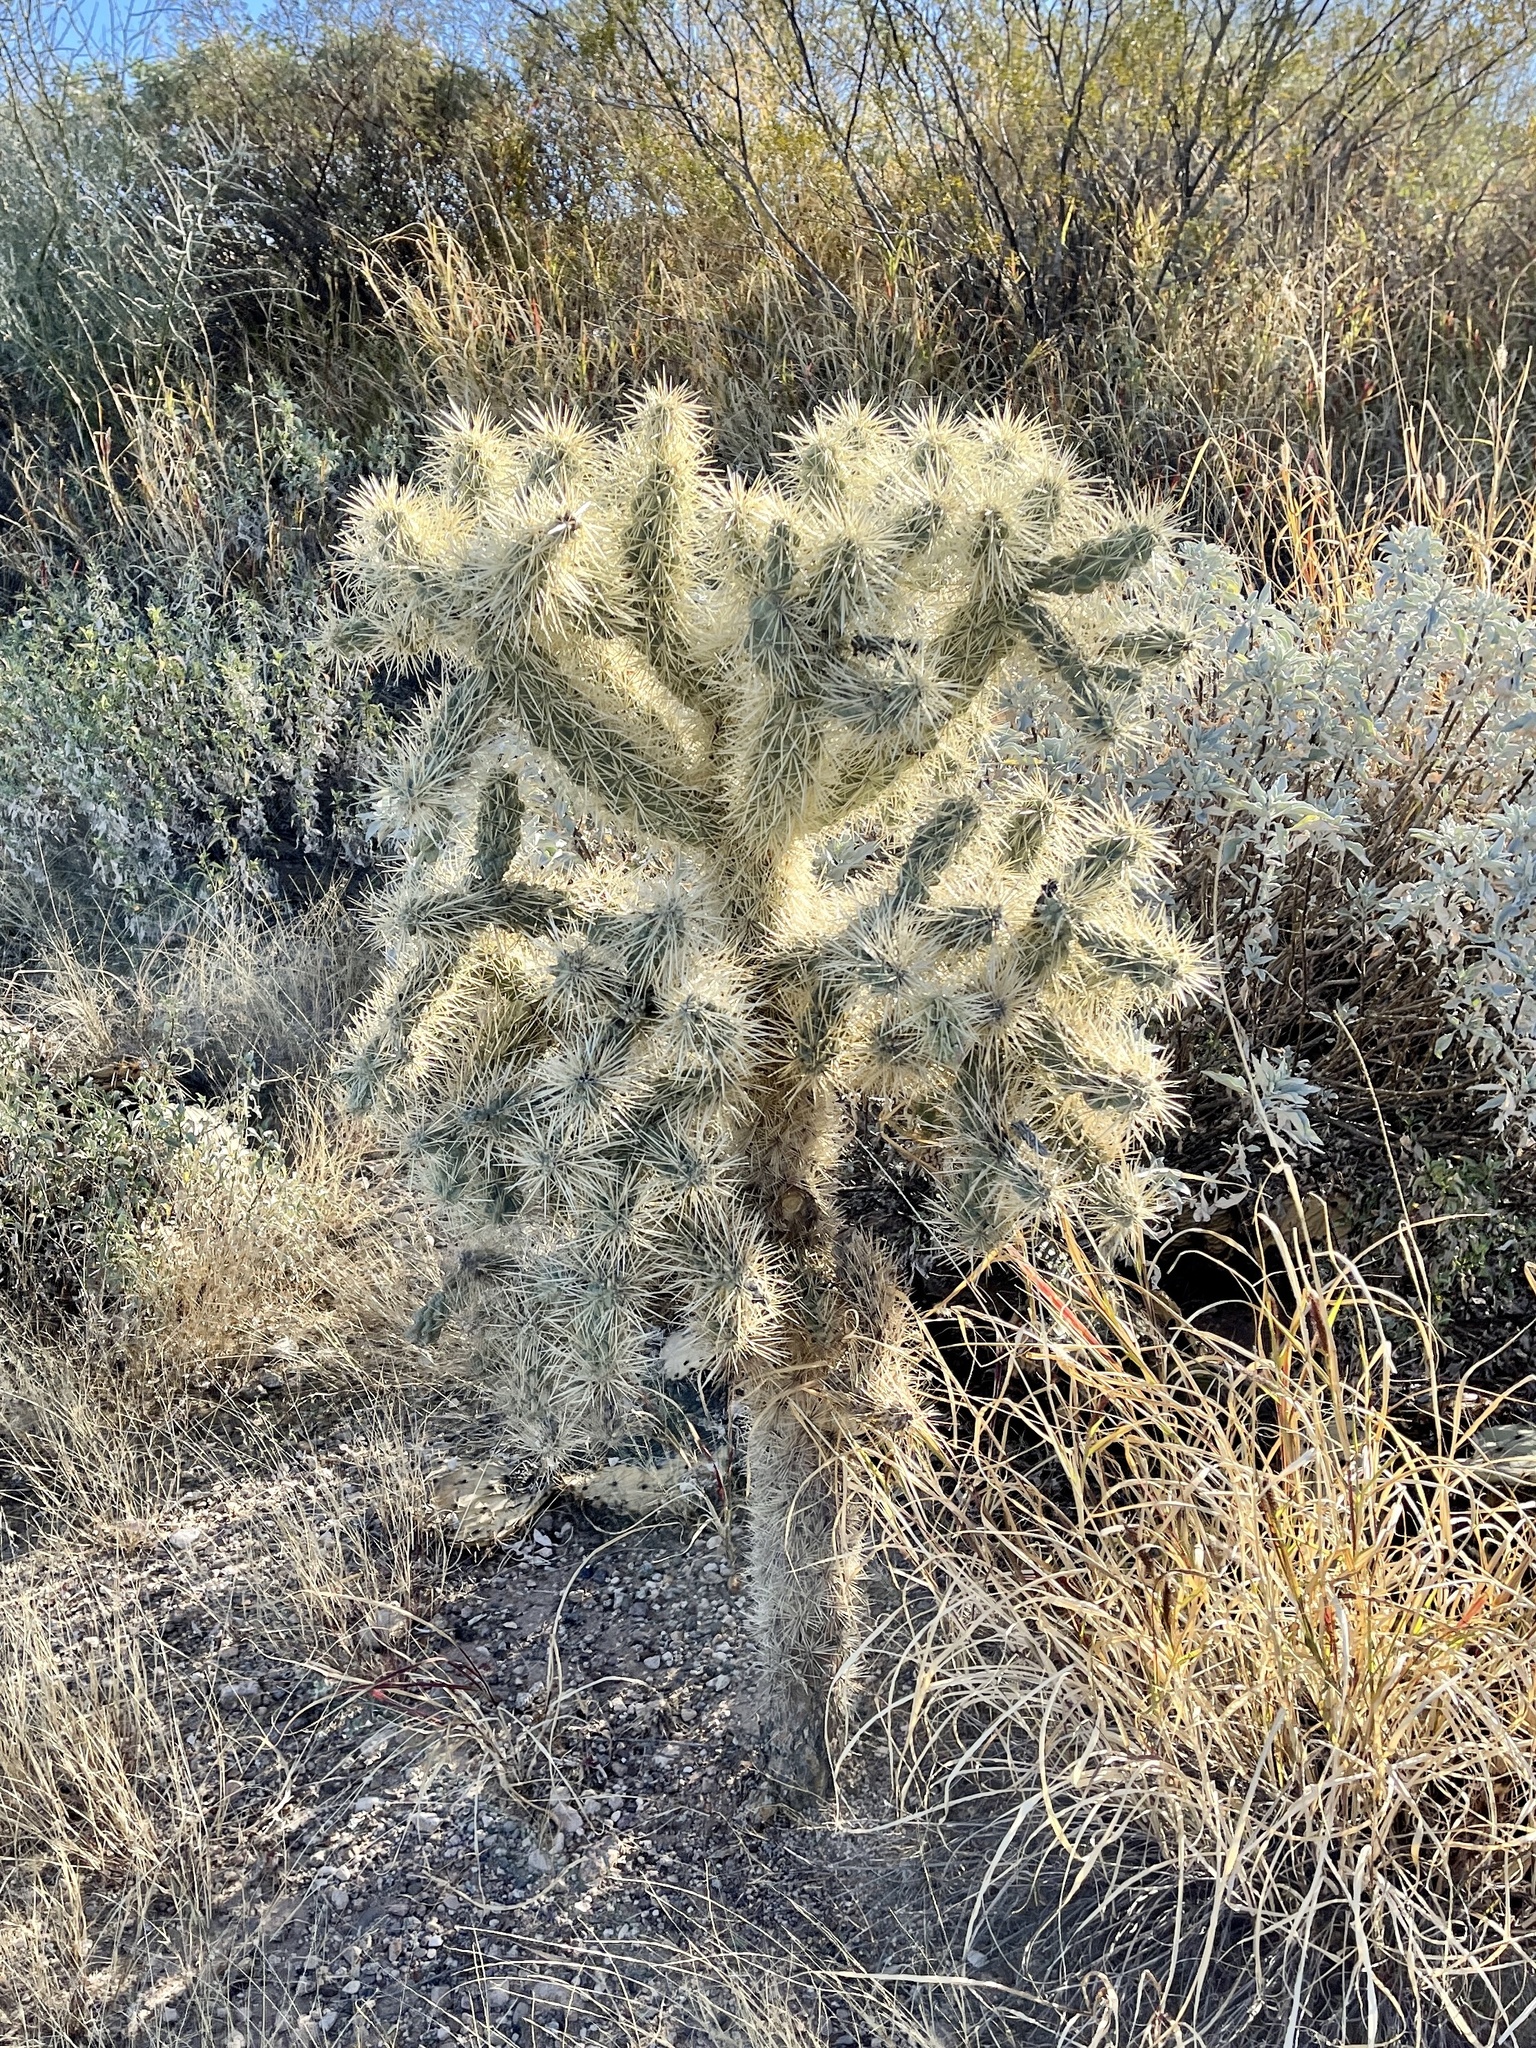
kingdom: Plantae
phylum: Tracheophyta
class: Magnoliopsida
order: Caryophyllales
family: Cactaceae
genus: Cylindropuntia
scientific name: Cylindropuntia fulgida
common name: Jumping cholla
